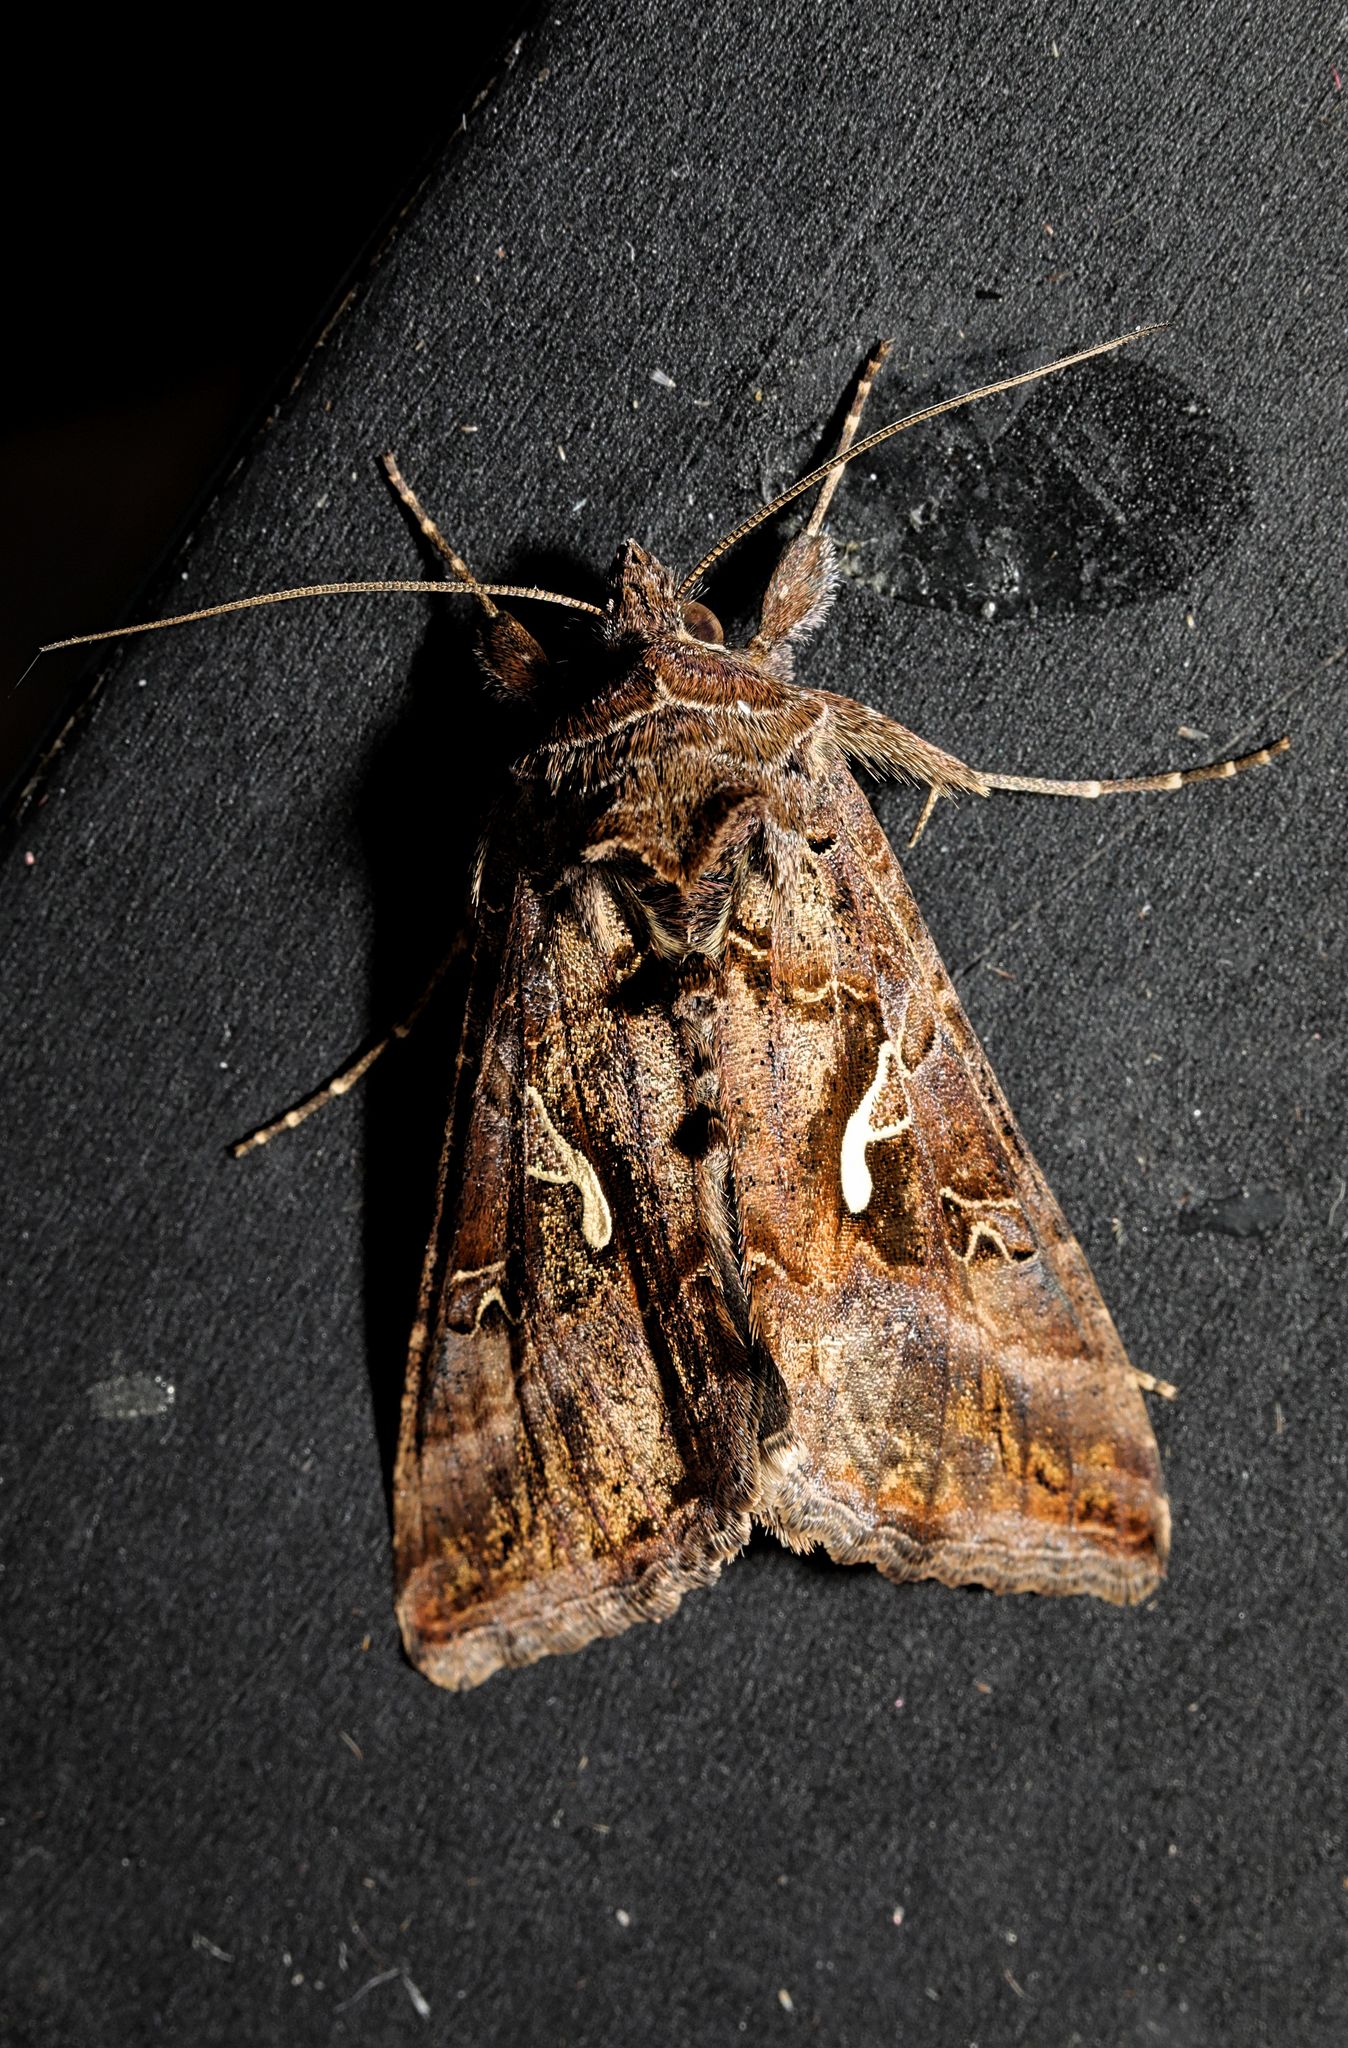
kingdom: Animalia
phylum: Arthropoda
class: Insecta
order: Lepidoptera
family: Noctuidae
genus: Autographa
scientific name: Autographa gamma
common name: Silver y
